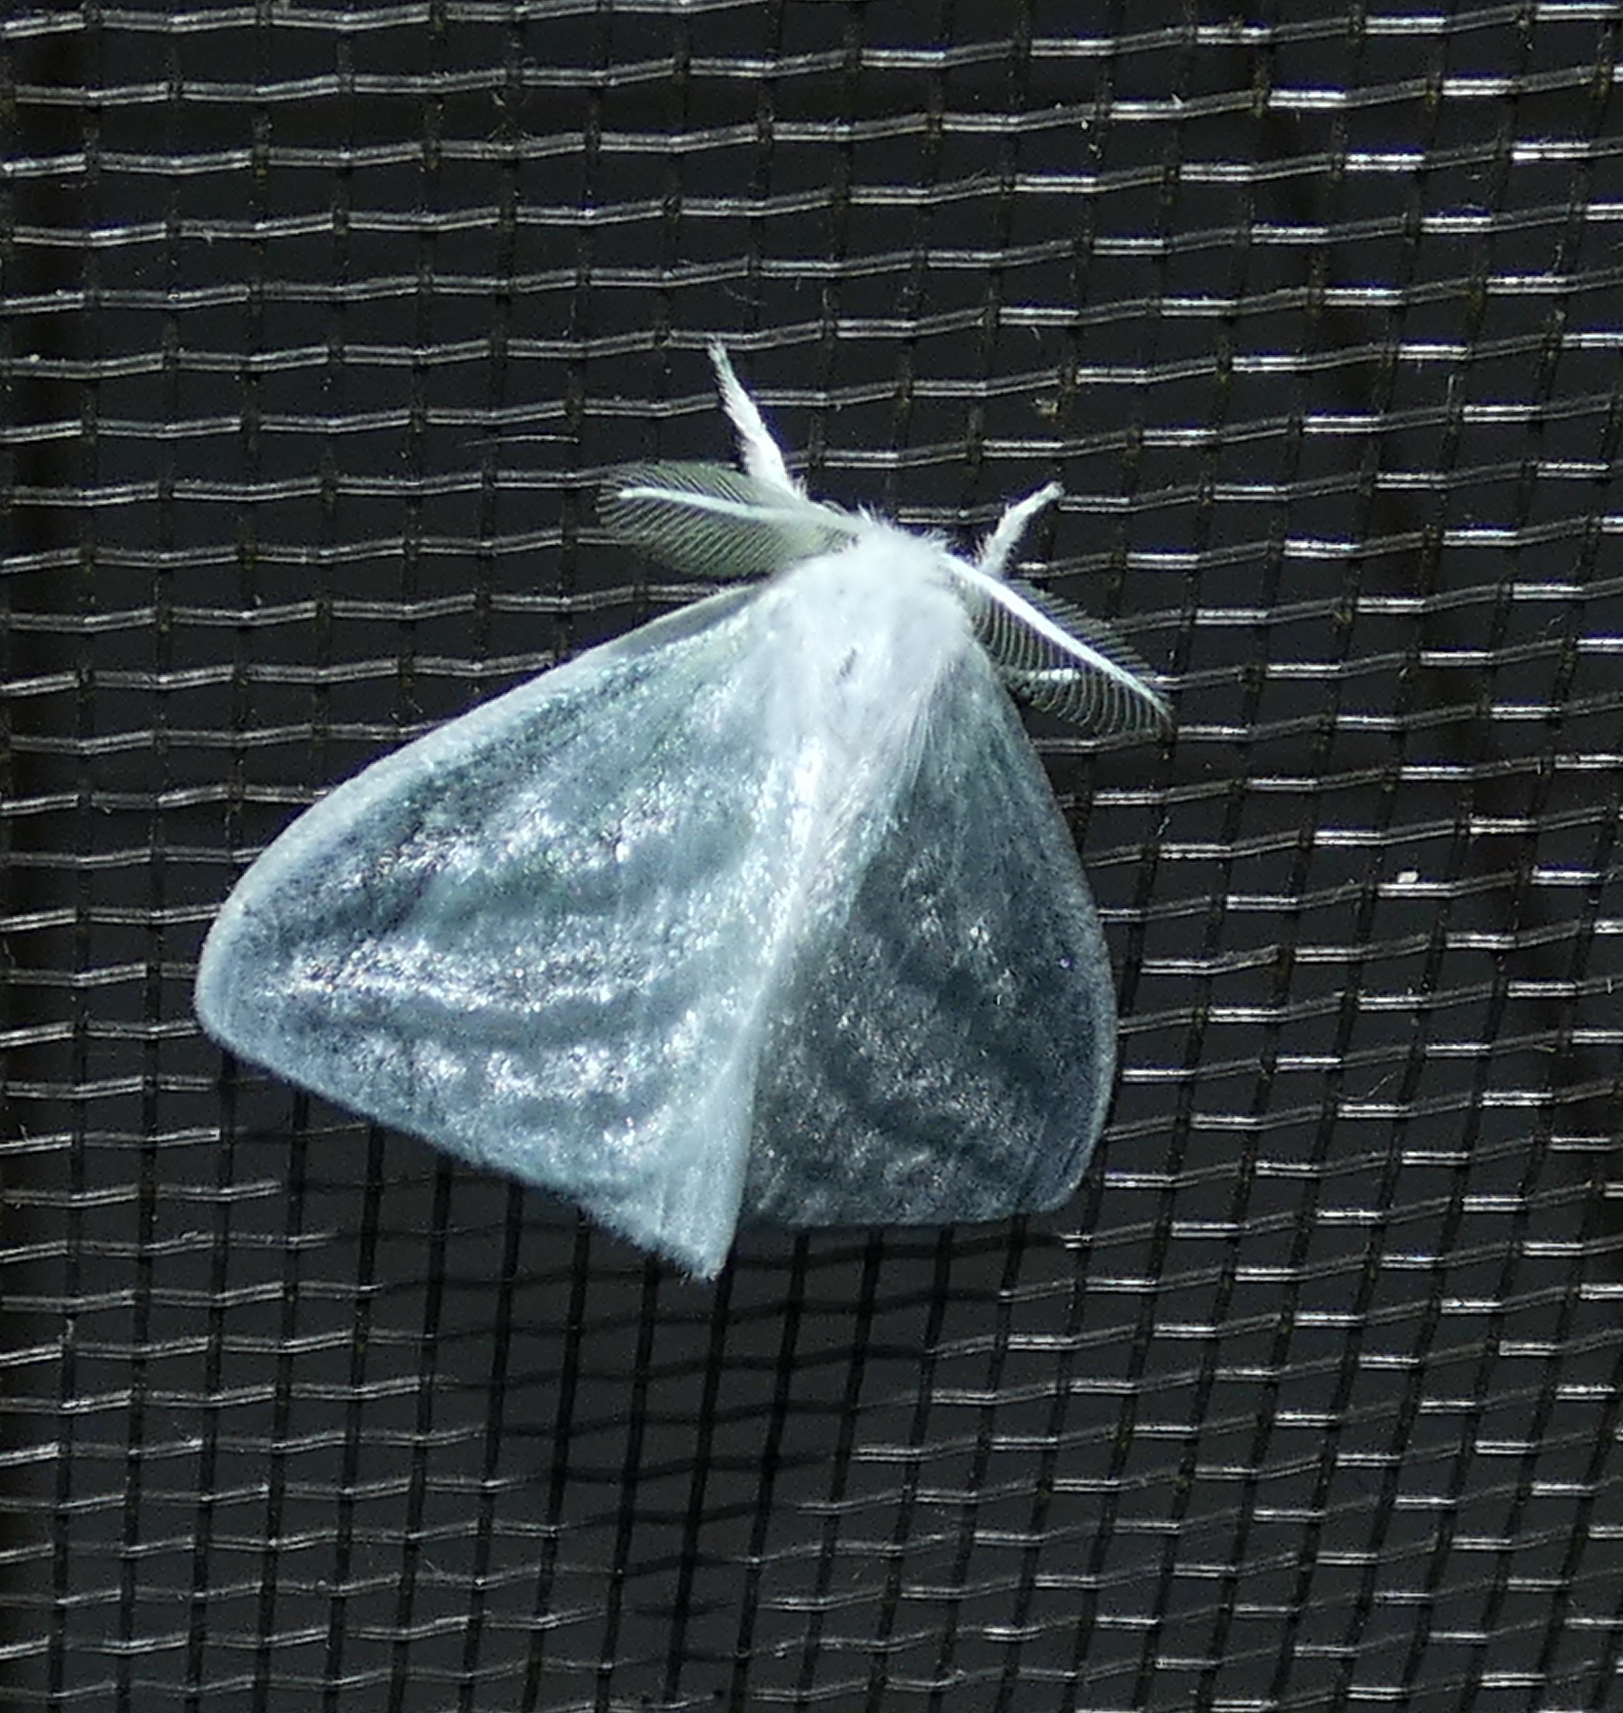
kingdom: Animalia
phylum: Arthropoda
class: Insecta
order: Lepidoptera
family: Erebidae
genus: Caviria
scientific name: Caviria regina
